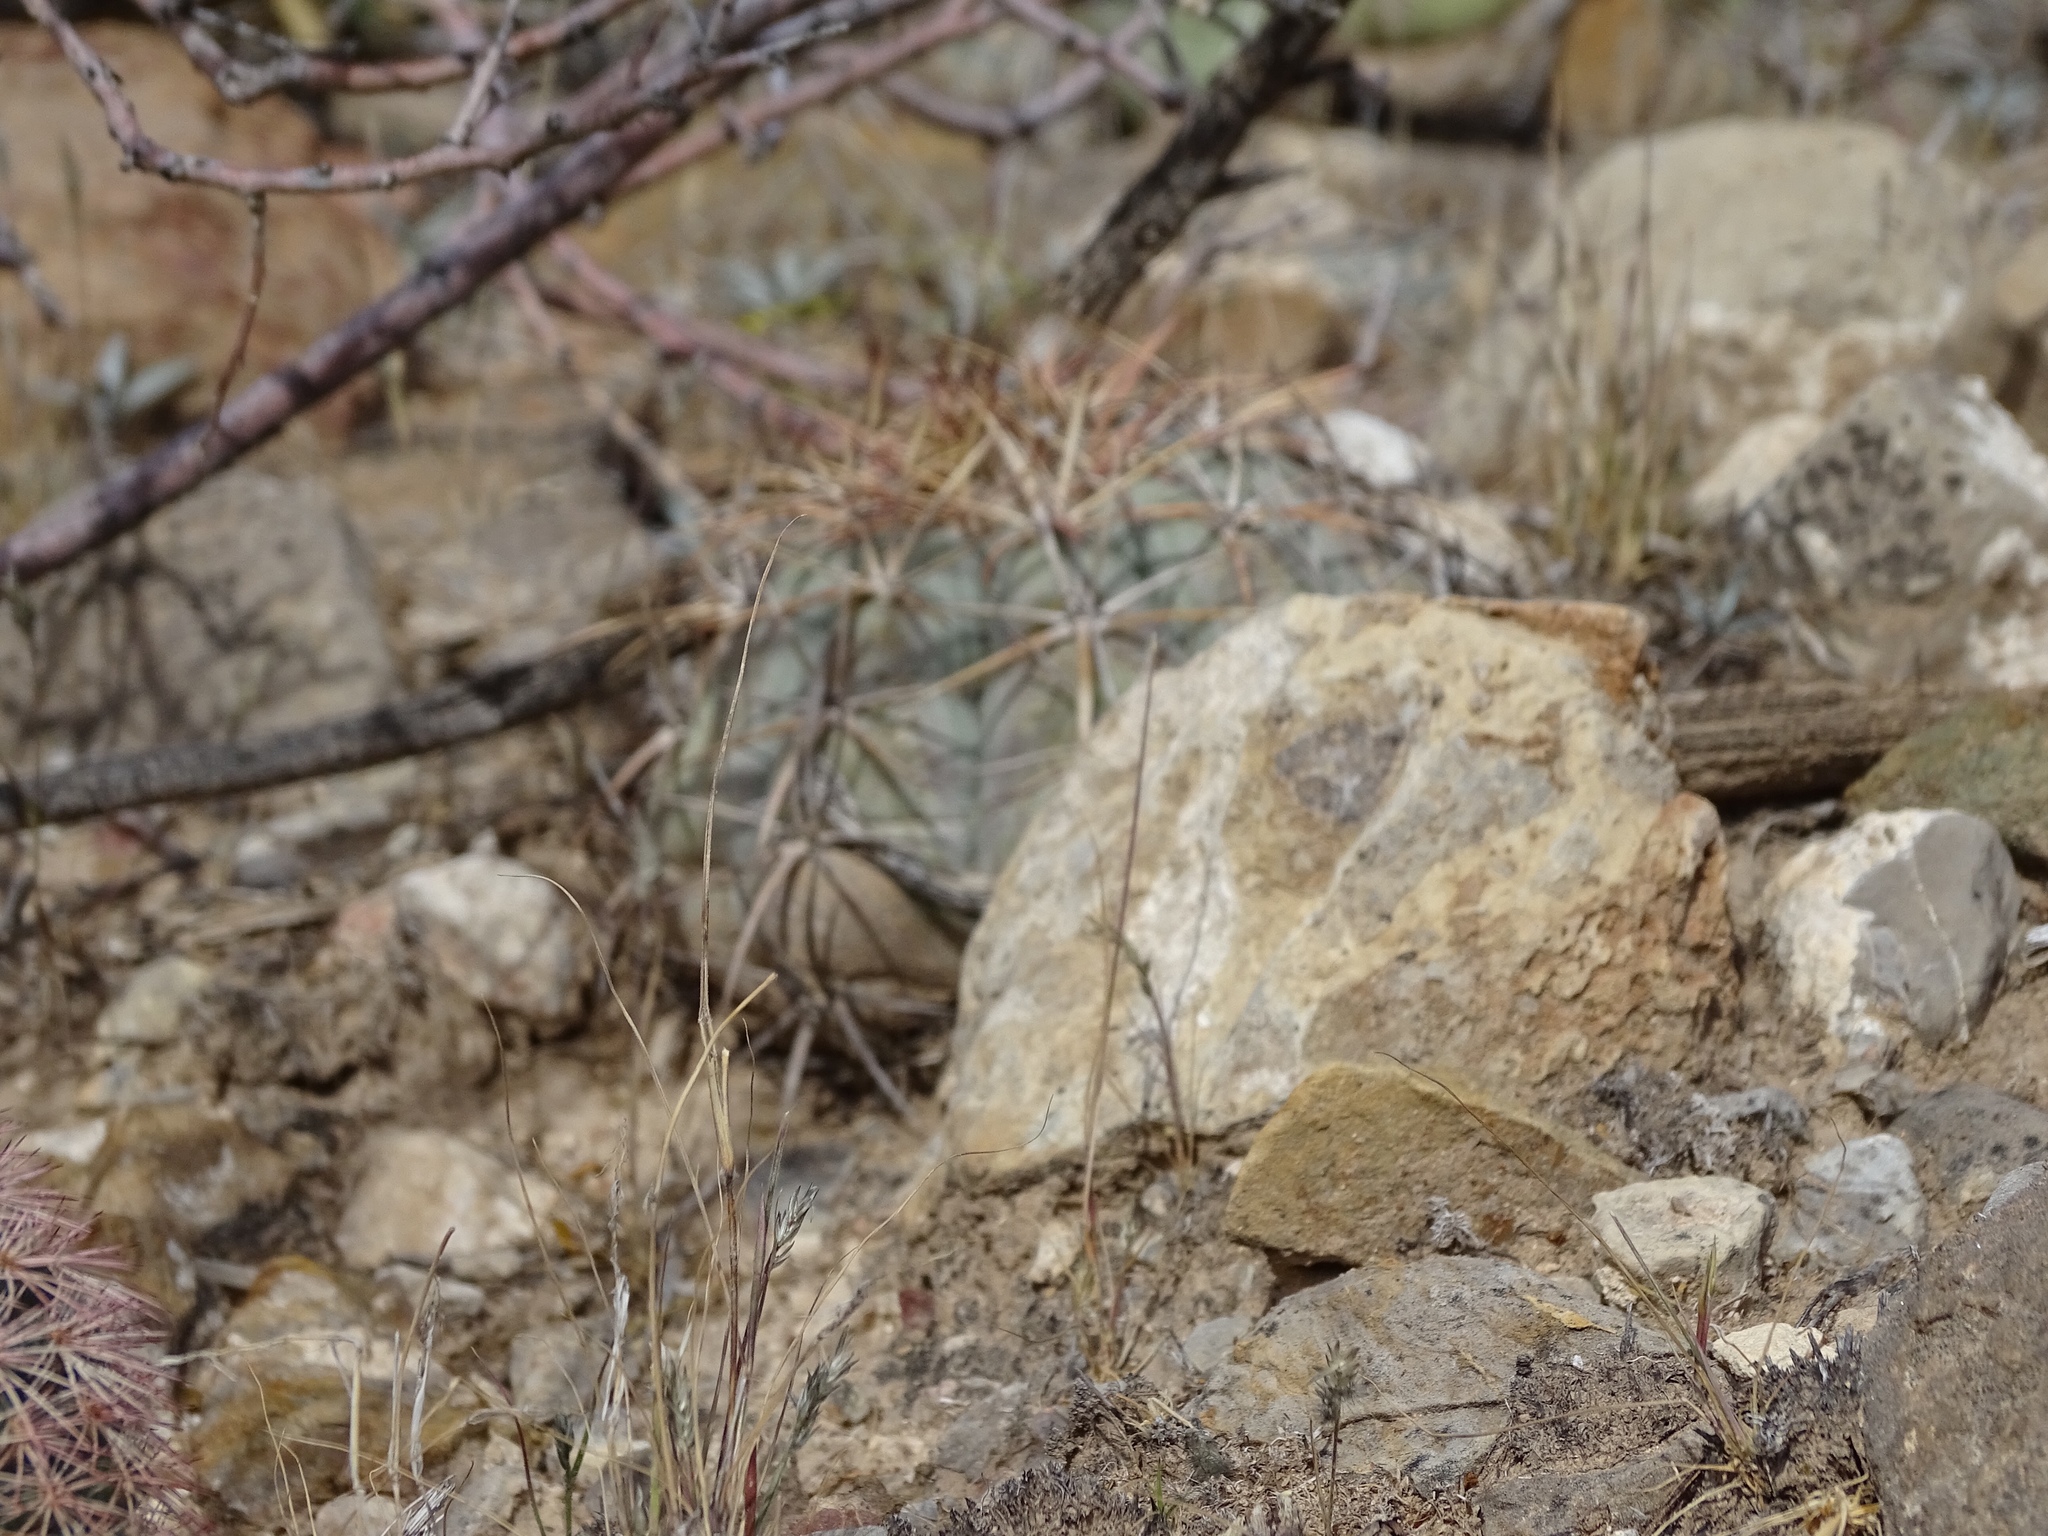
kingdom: Plantae
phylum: Tracheophyta
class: Magnoliopsida
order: Caryophyllales
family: Cactaceae
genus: Echinocactus
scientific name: Echinocactus horizonthalonius
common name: Devilshead
